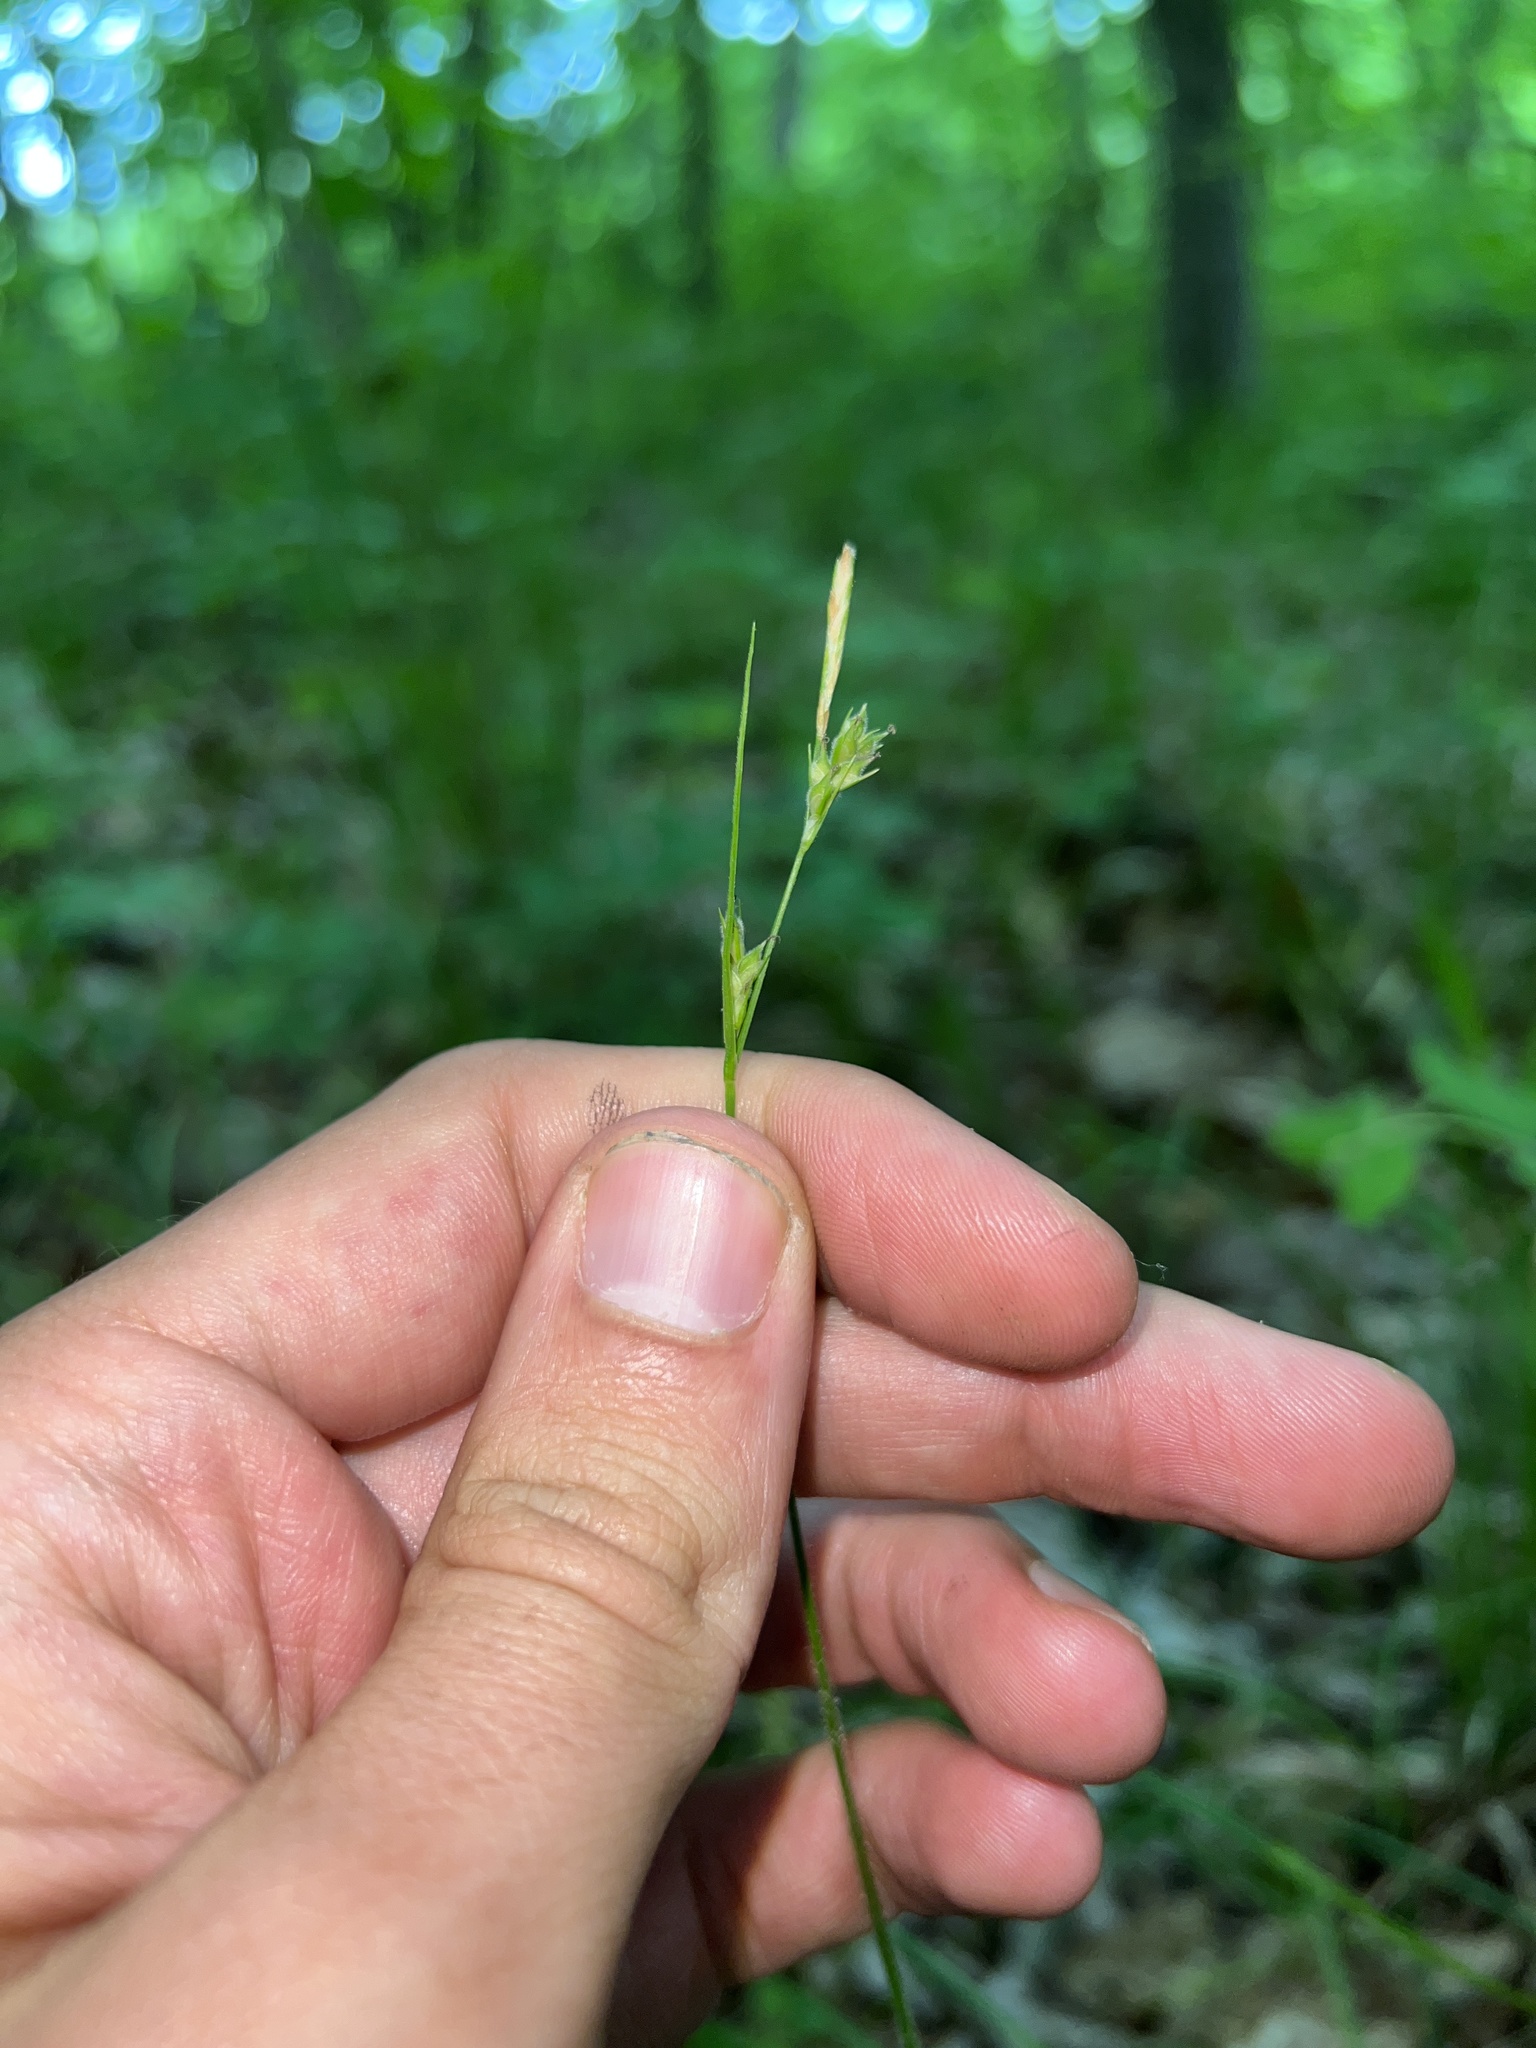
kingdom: Plantae
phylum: Tracheophyta
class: Liliopsida
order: Poales
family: Cyperaceae
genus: Carex
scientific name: Carex hirtifolia
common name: Hairy sedge
